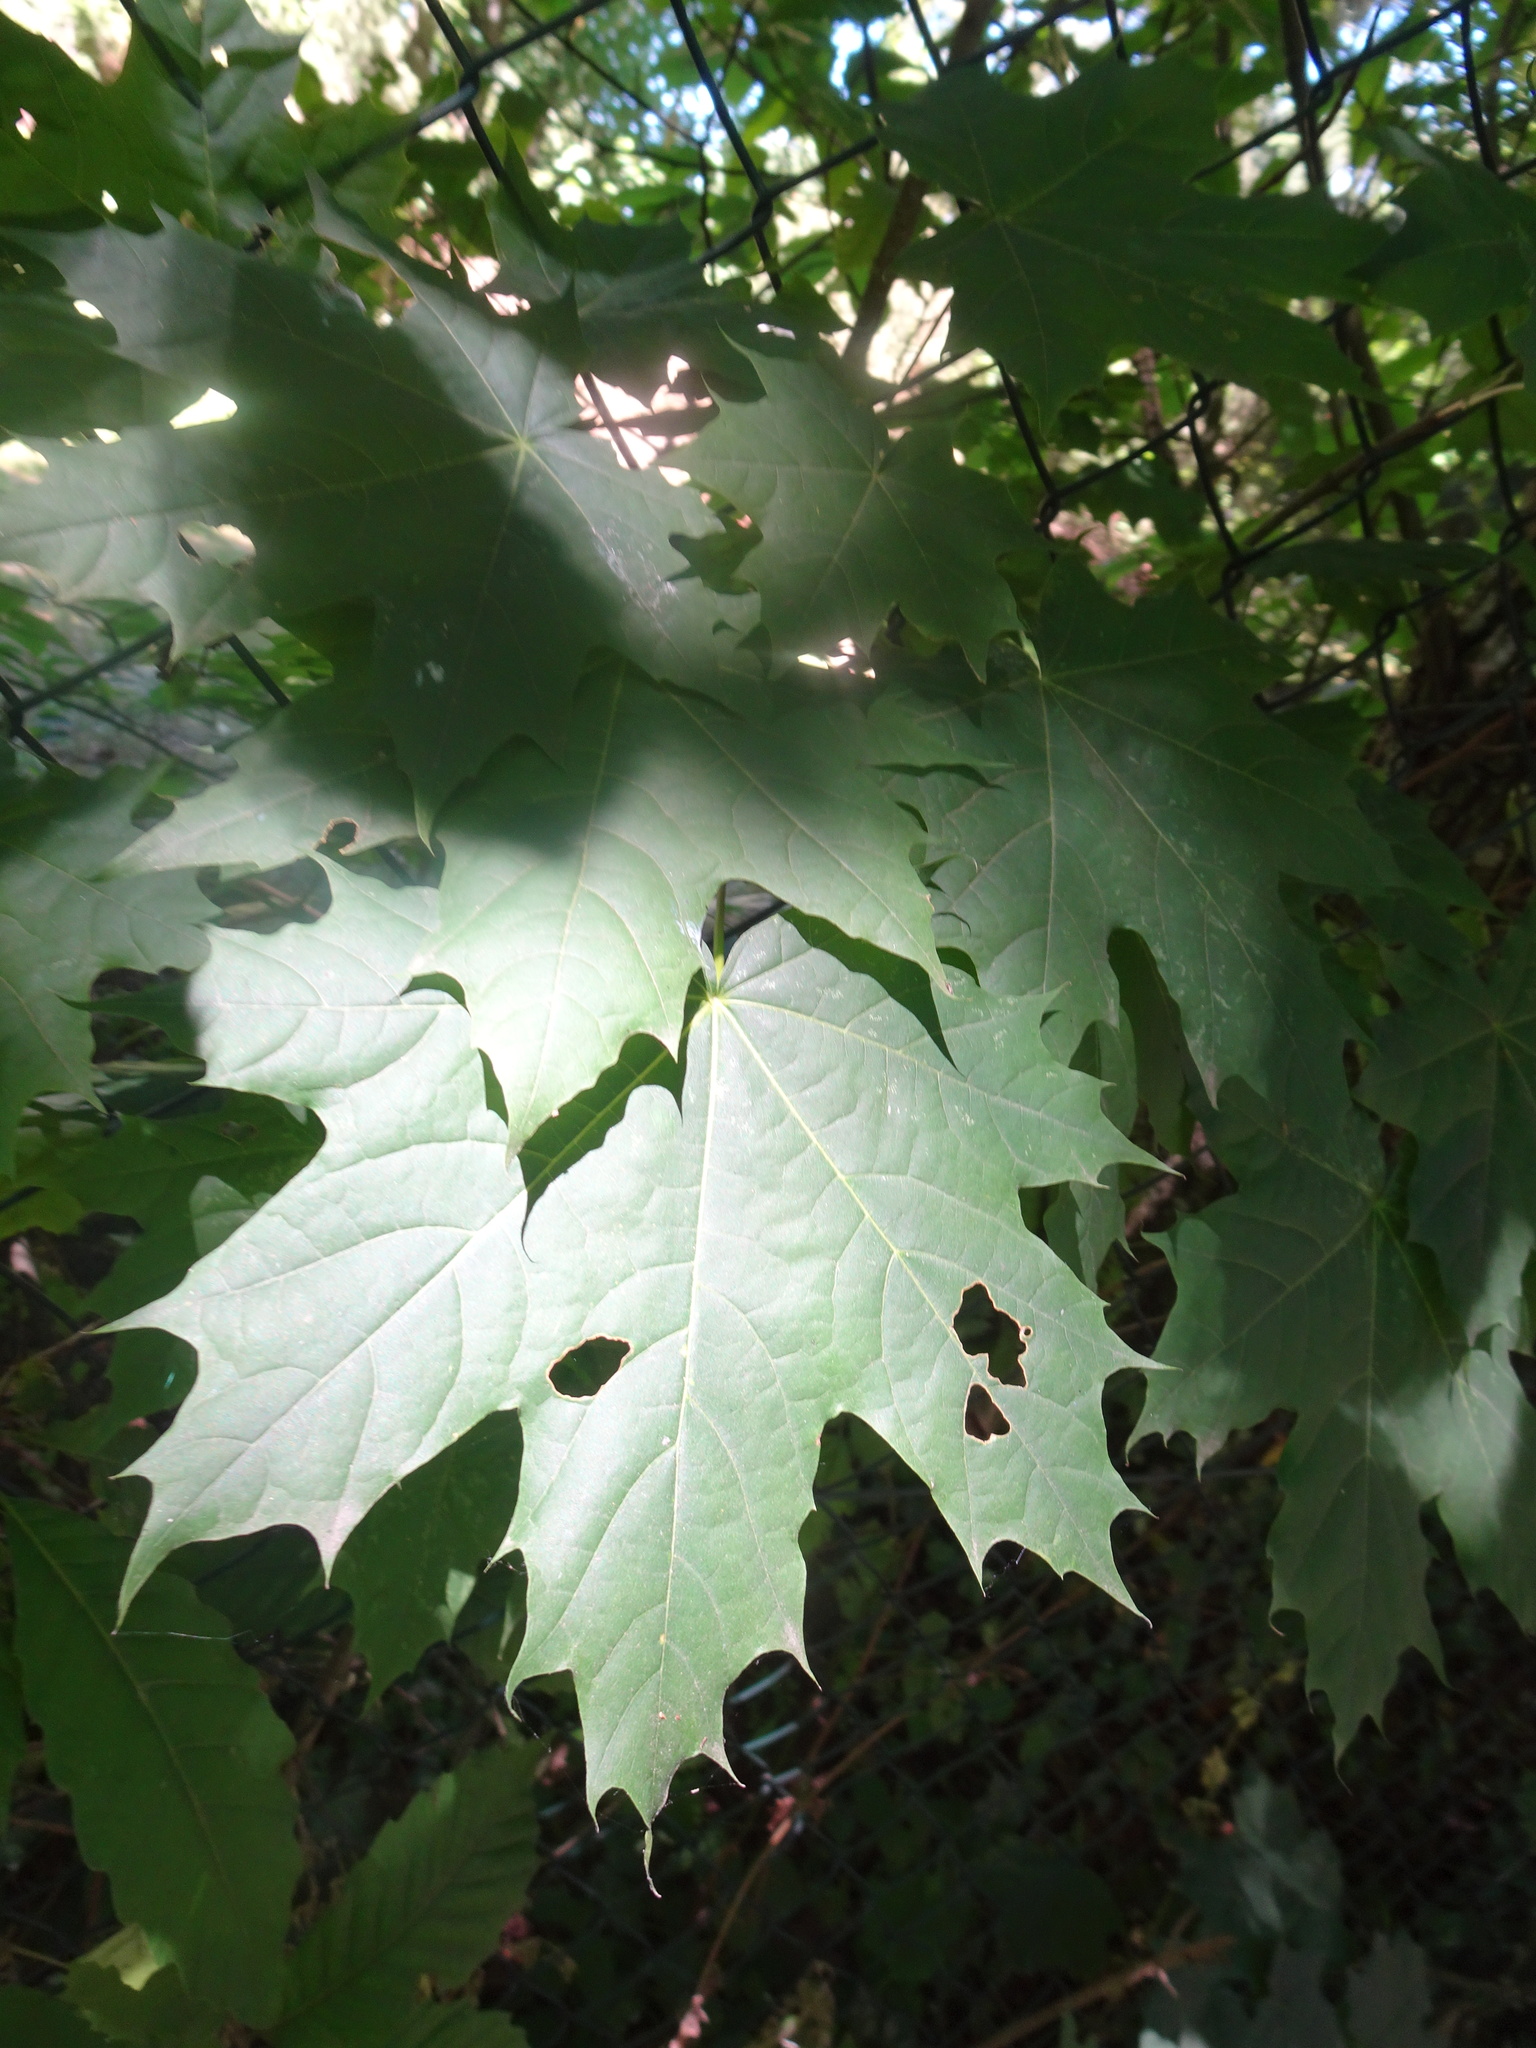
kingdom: Plantae
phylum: Tracheophyta
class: Magnoliopsida
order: Sapindales
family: Sapindaceae
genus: Acer
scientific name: Acer platanoides
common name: Norway maple
